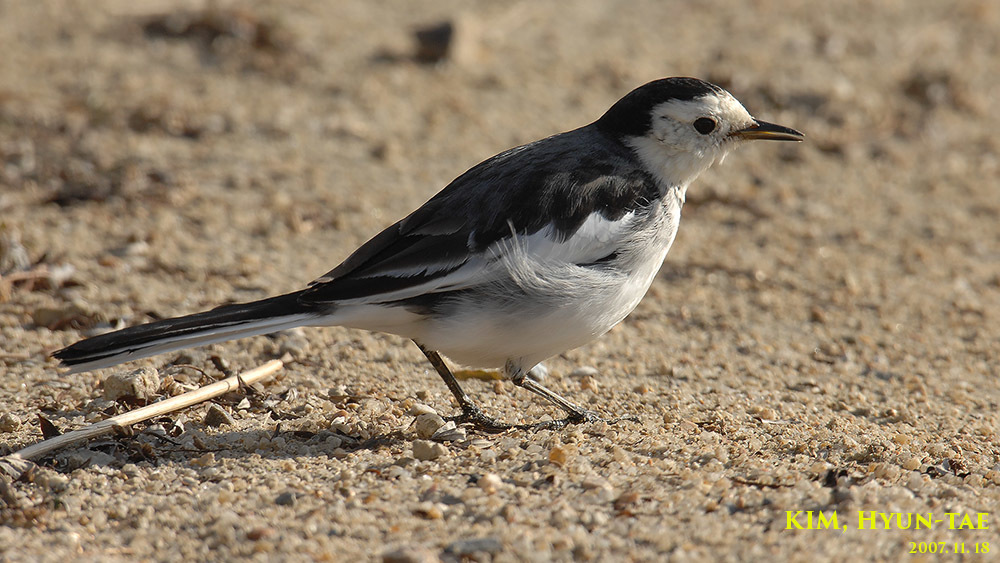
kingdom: Animalia
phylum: Chordata
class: Aves
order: Passeriformes
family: Motacillidae
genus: Motacilla
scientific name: Motacilla alba
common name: White wagtail
